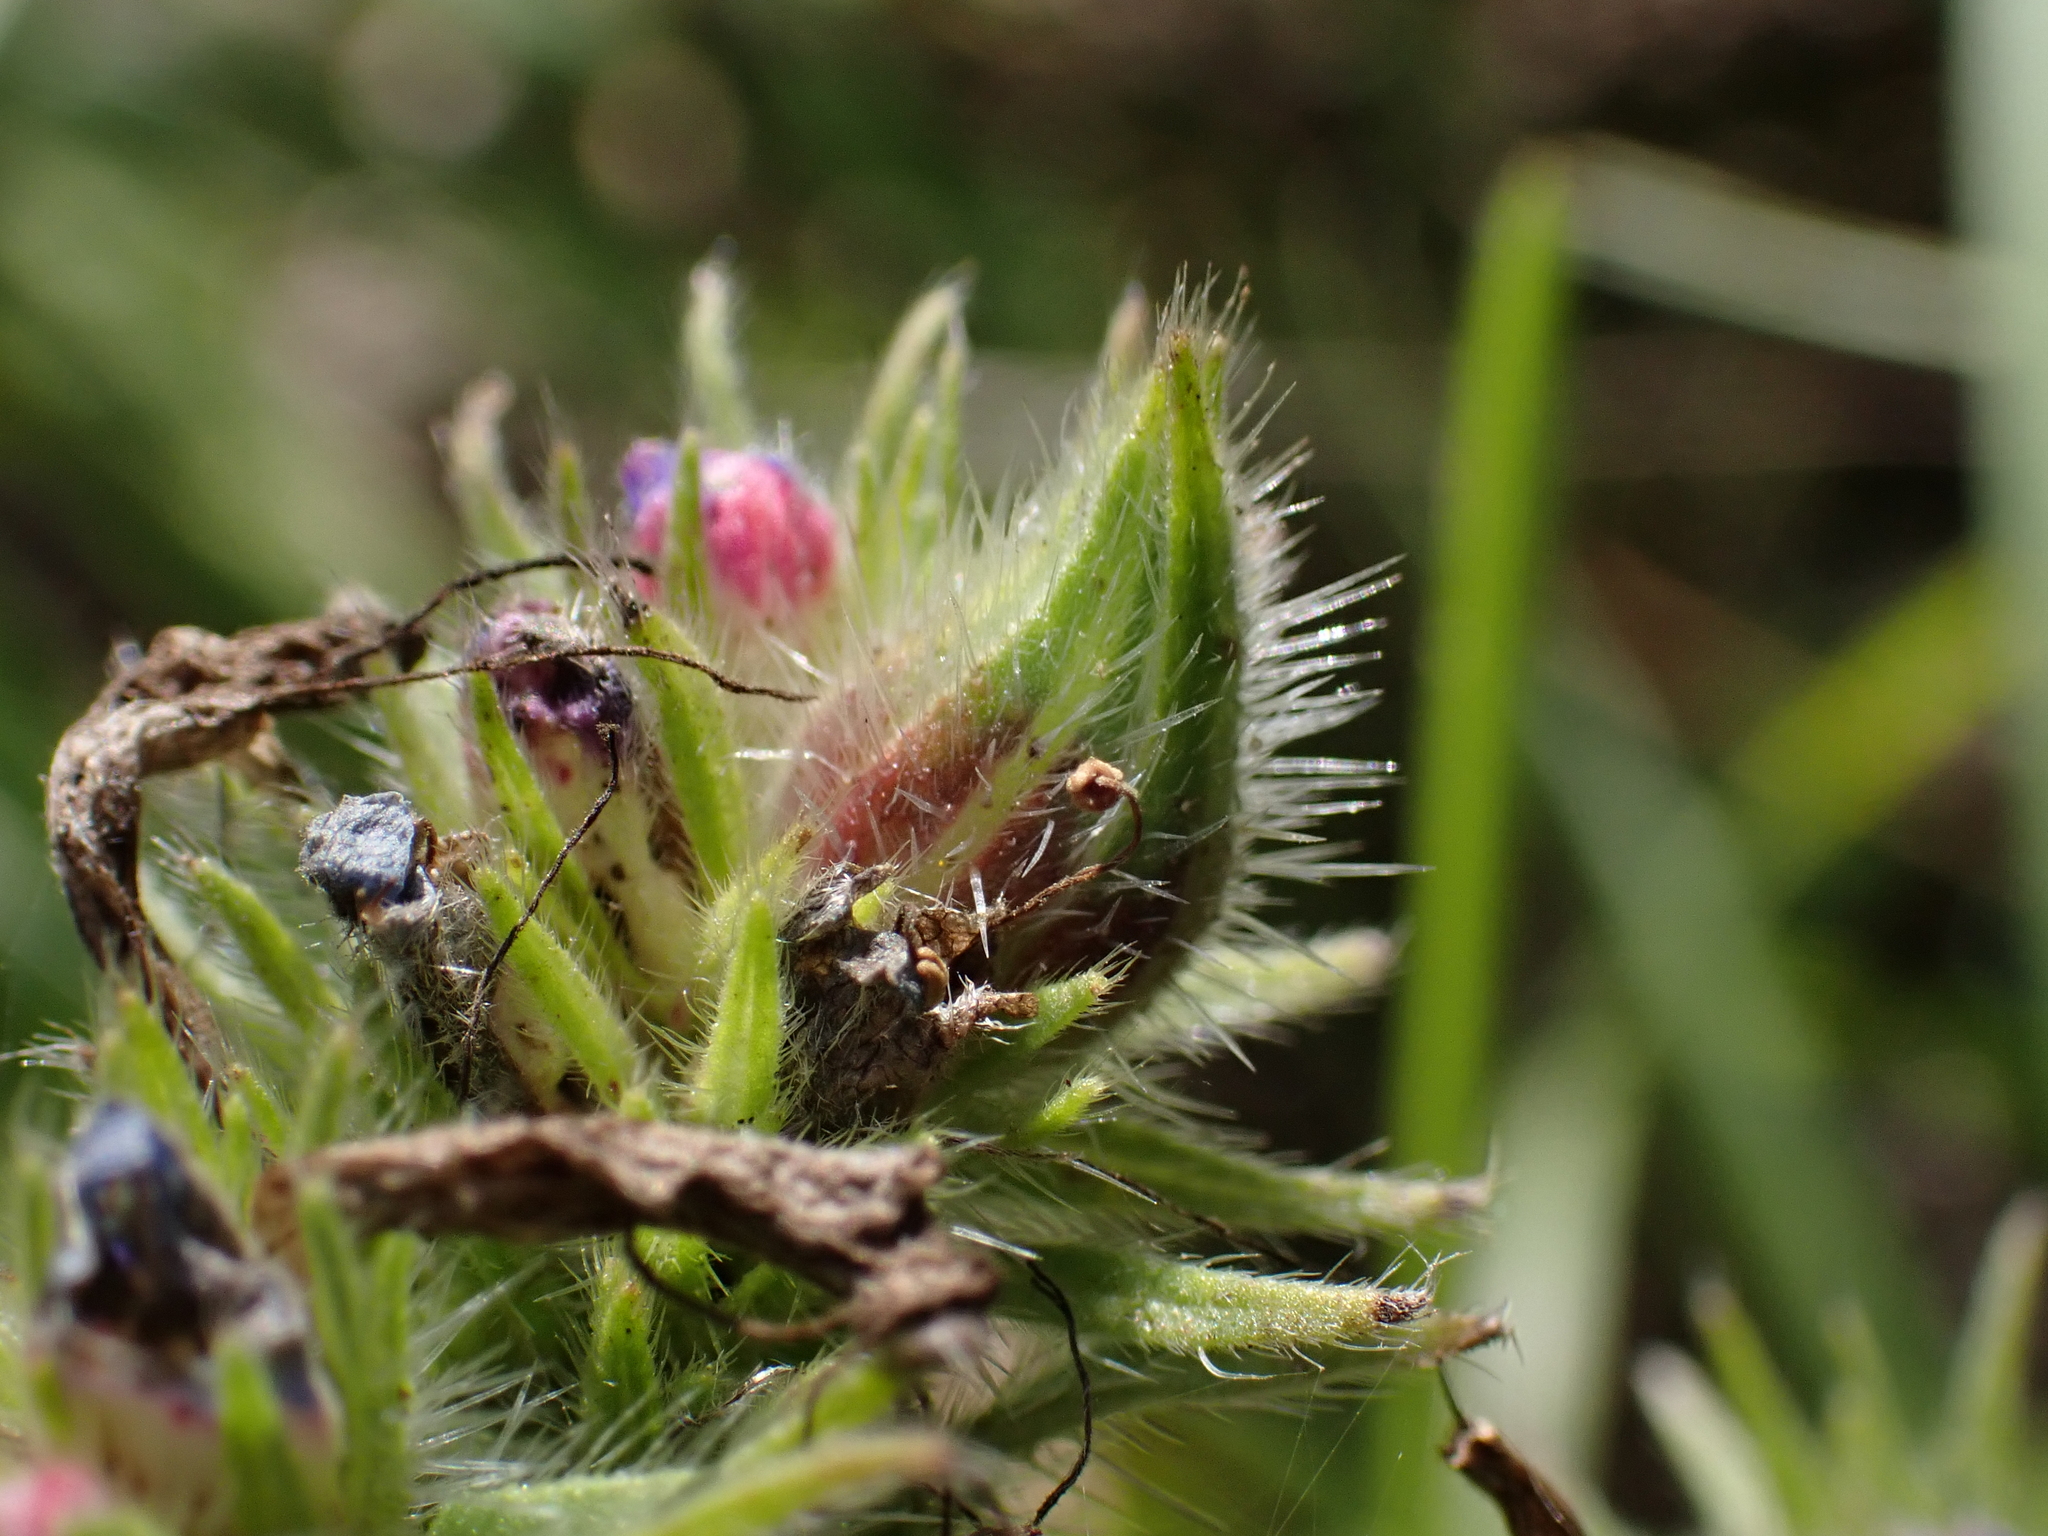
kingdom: Animalia
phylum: Arthropoda
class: Insecta
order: Diptera
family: Cecidomyiidae
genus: Asphondylia
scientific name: Asphondylia echii
